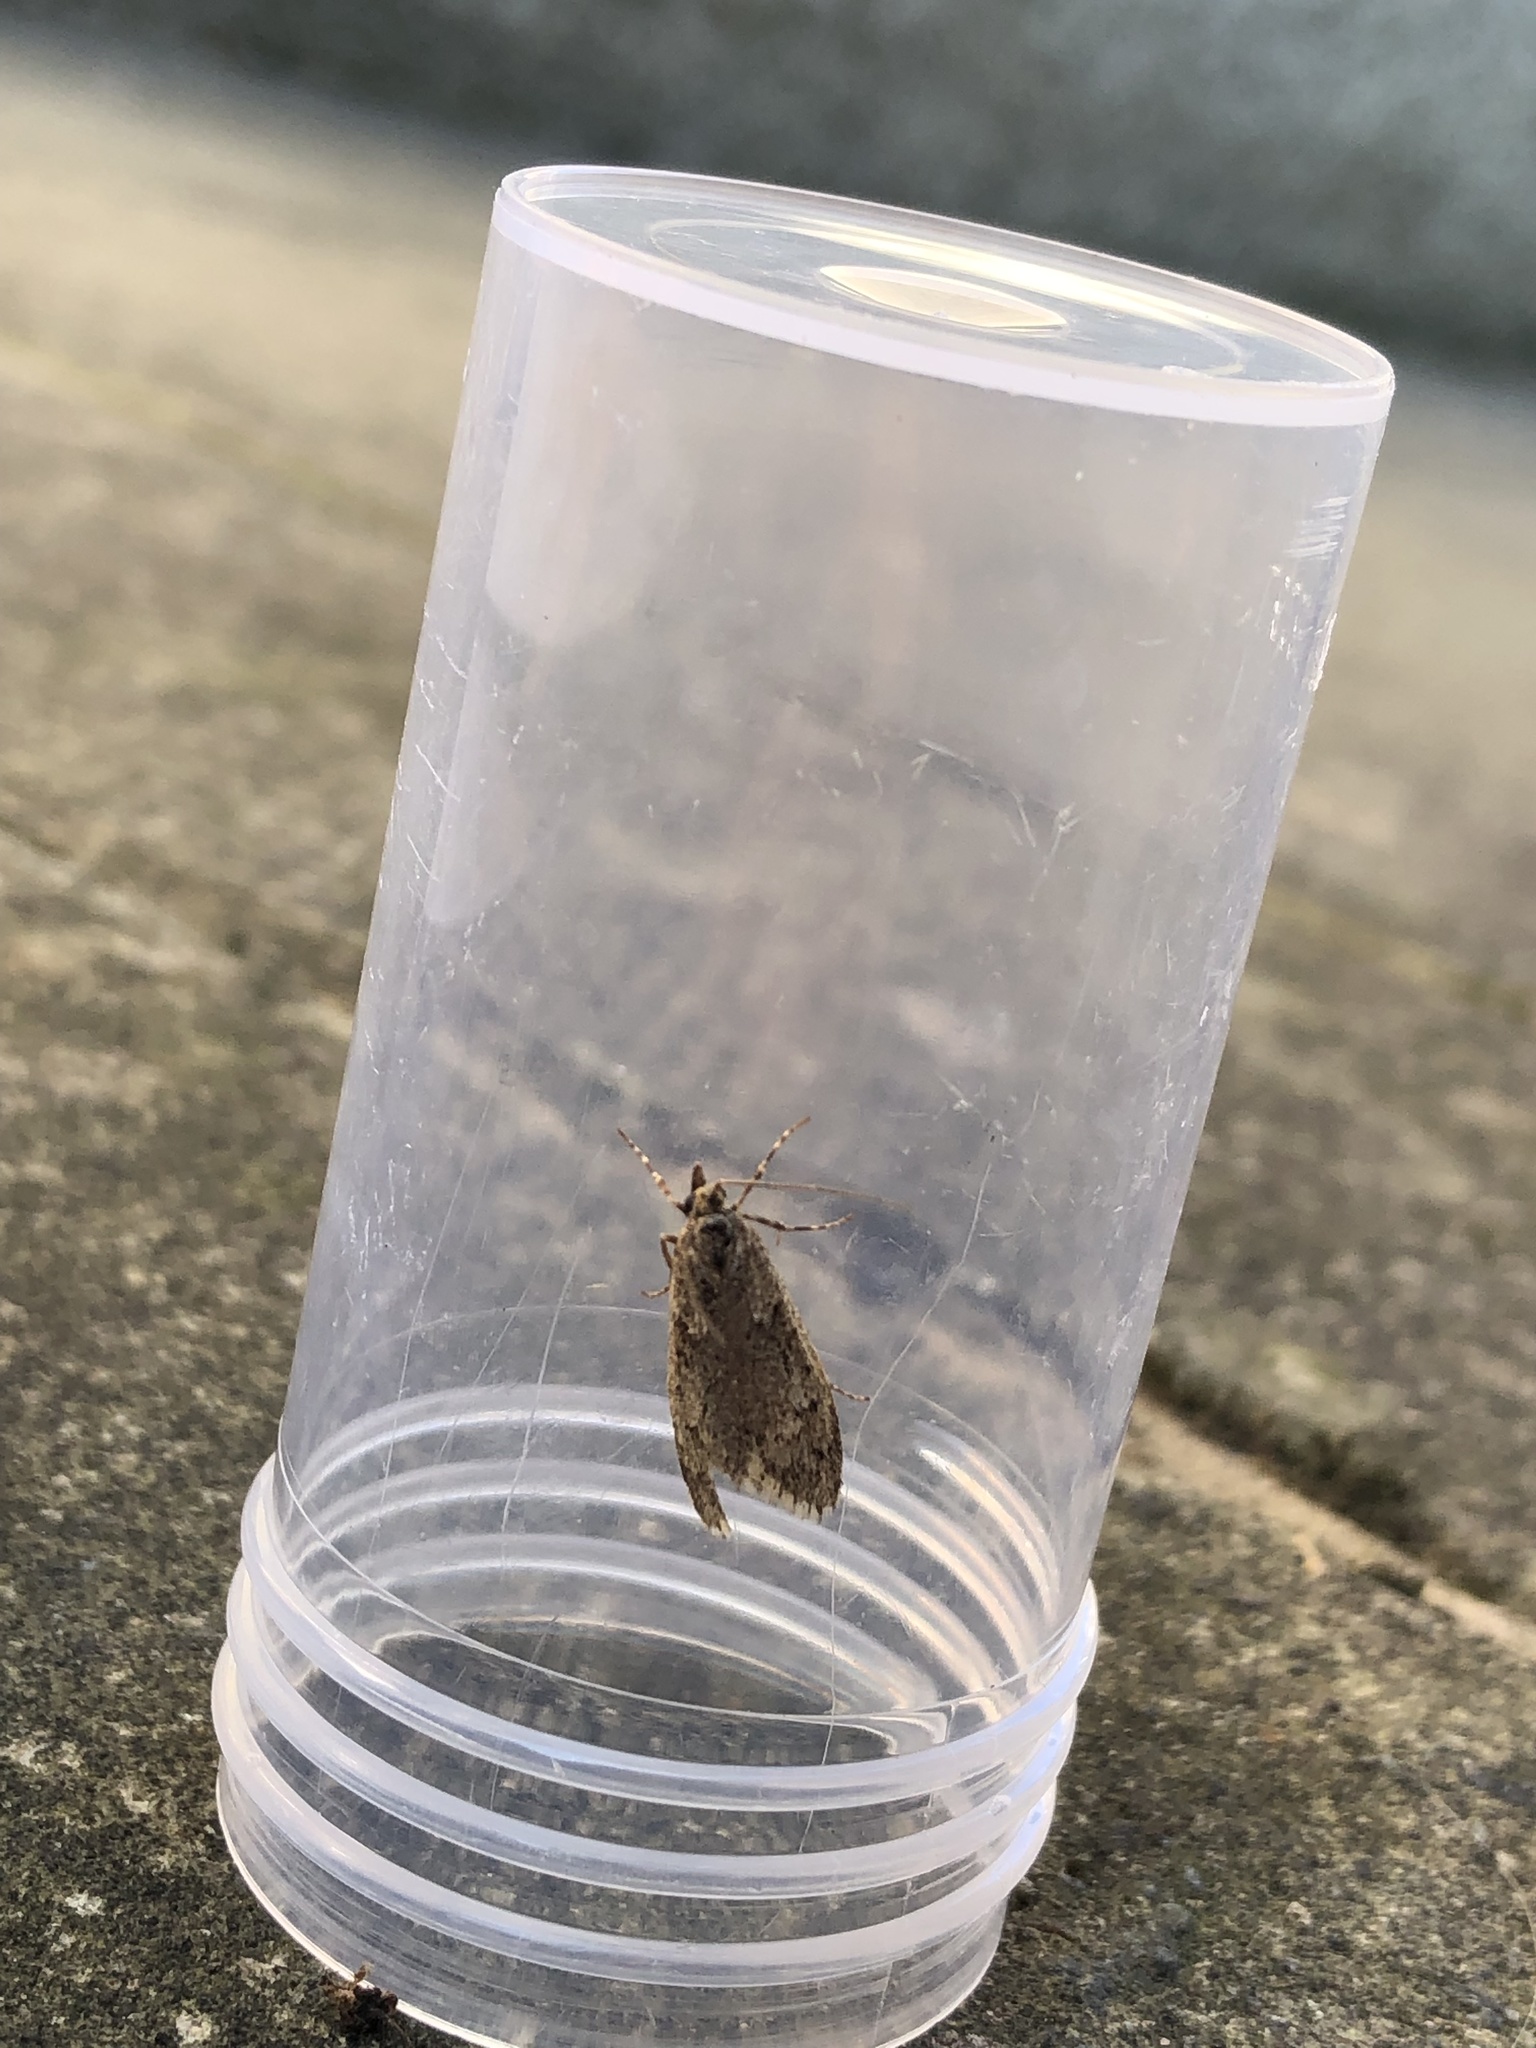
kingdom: Animalia
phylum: Arthropoda
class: Insecta
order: Lepidoptera
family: Lypusidae
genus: Diurnea
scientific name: Diurnea fagella
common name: March tubic
